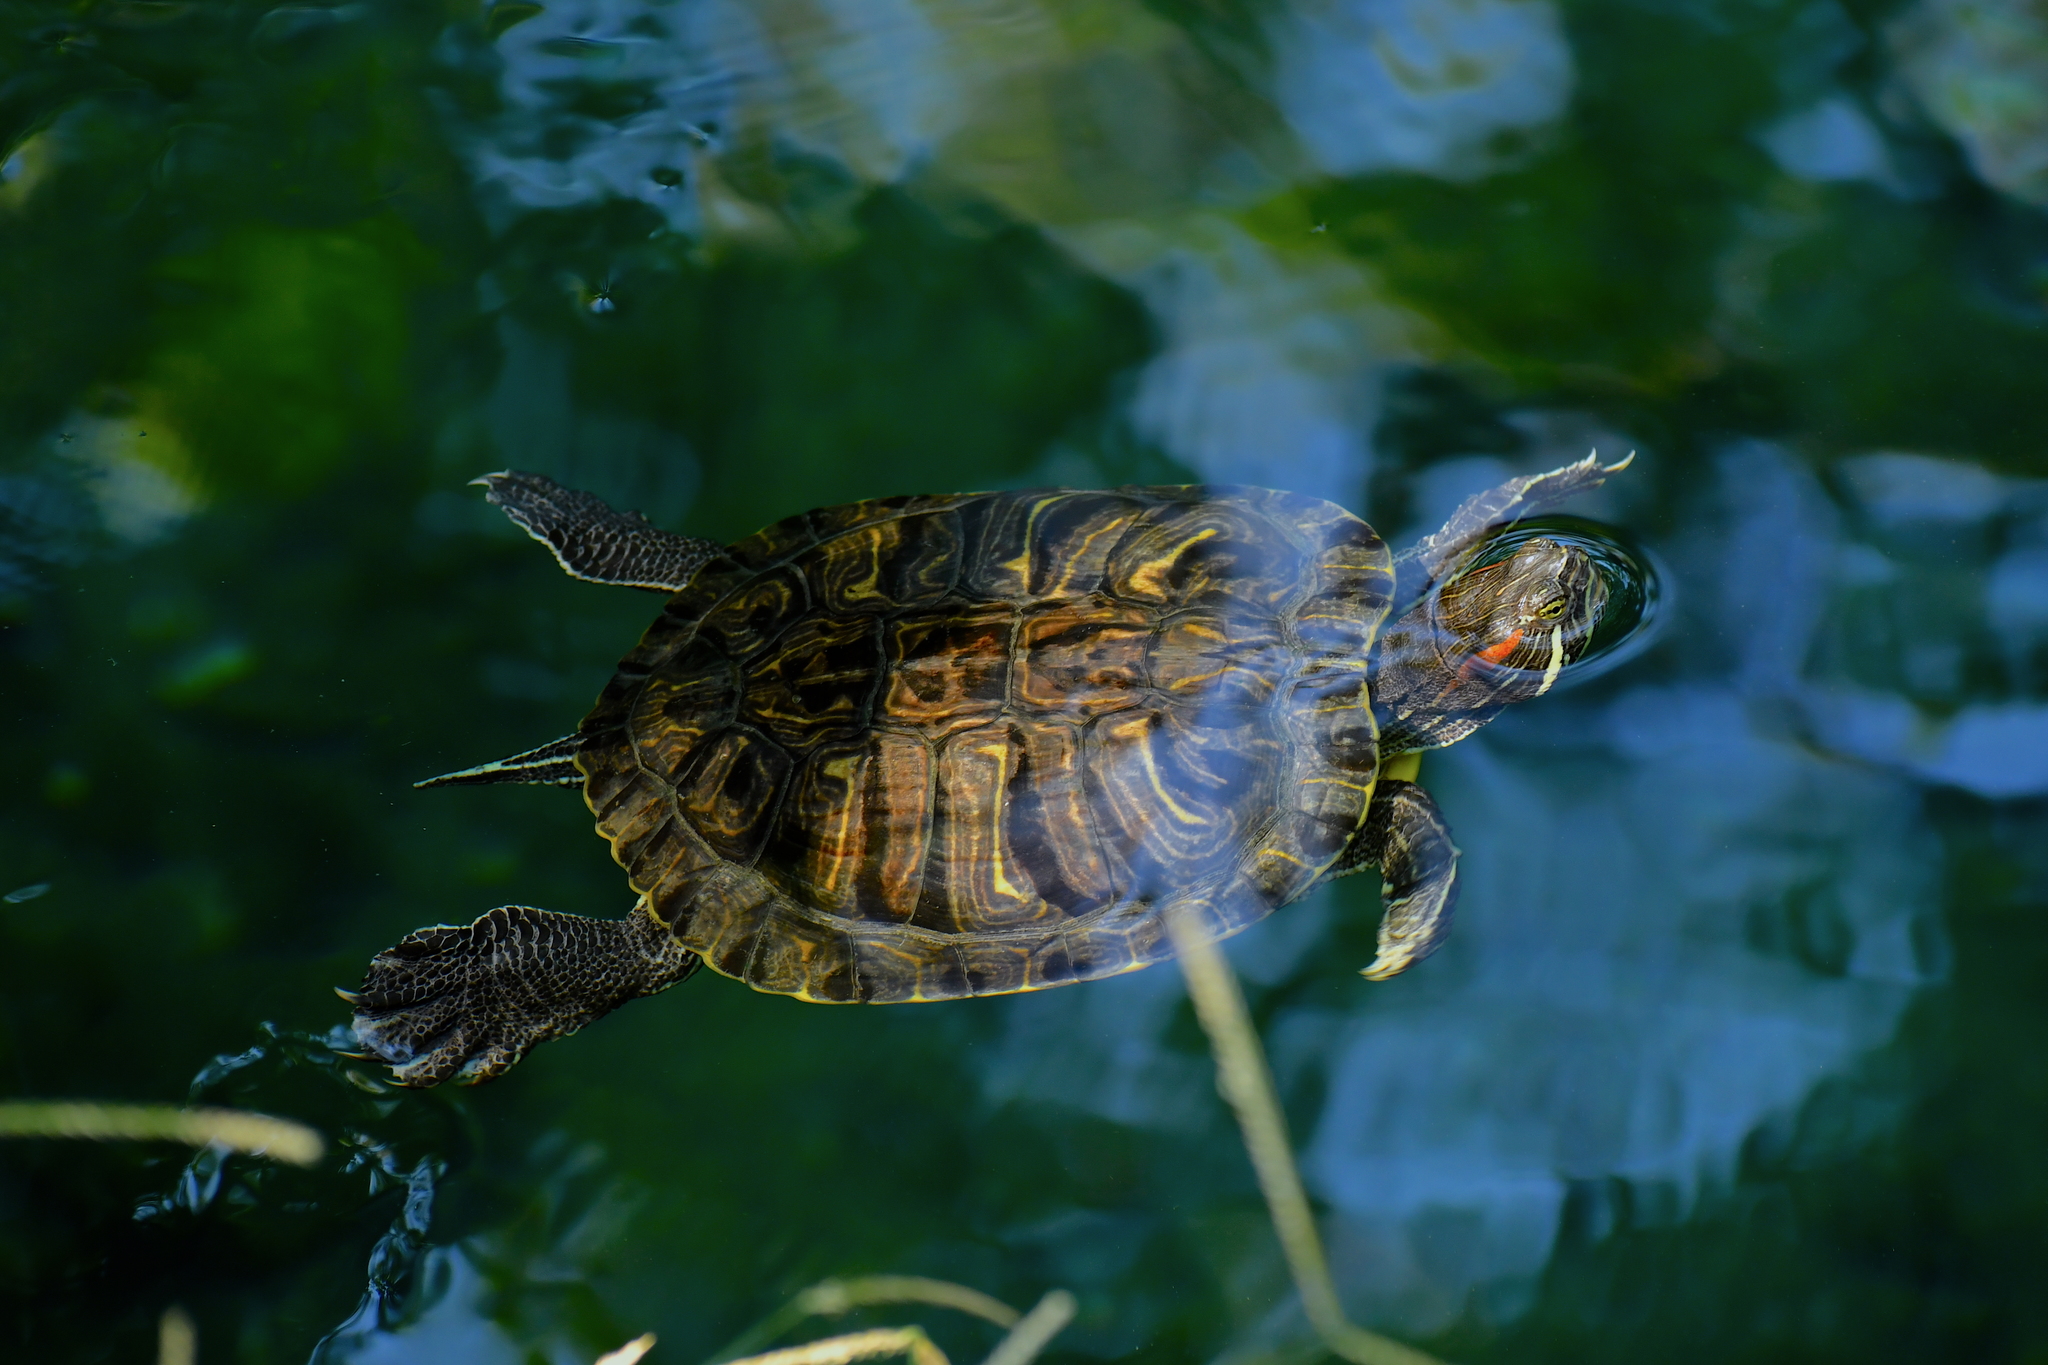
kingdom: Animalia
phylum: Chordata
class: Testudines
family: Emydidae
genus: Trachemys
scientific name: Trachemys scripta
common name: Slider
